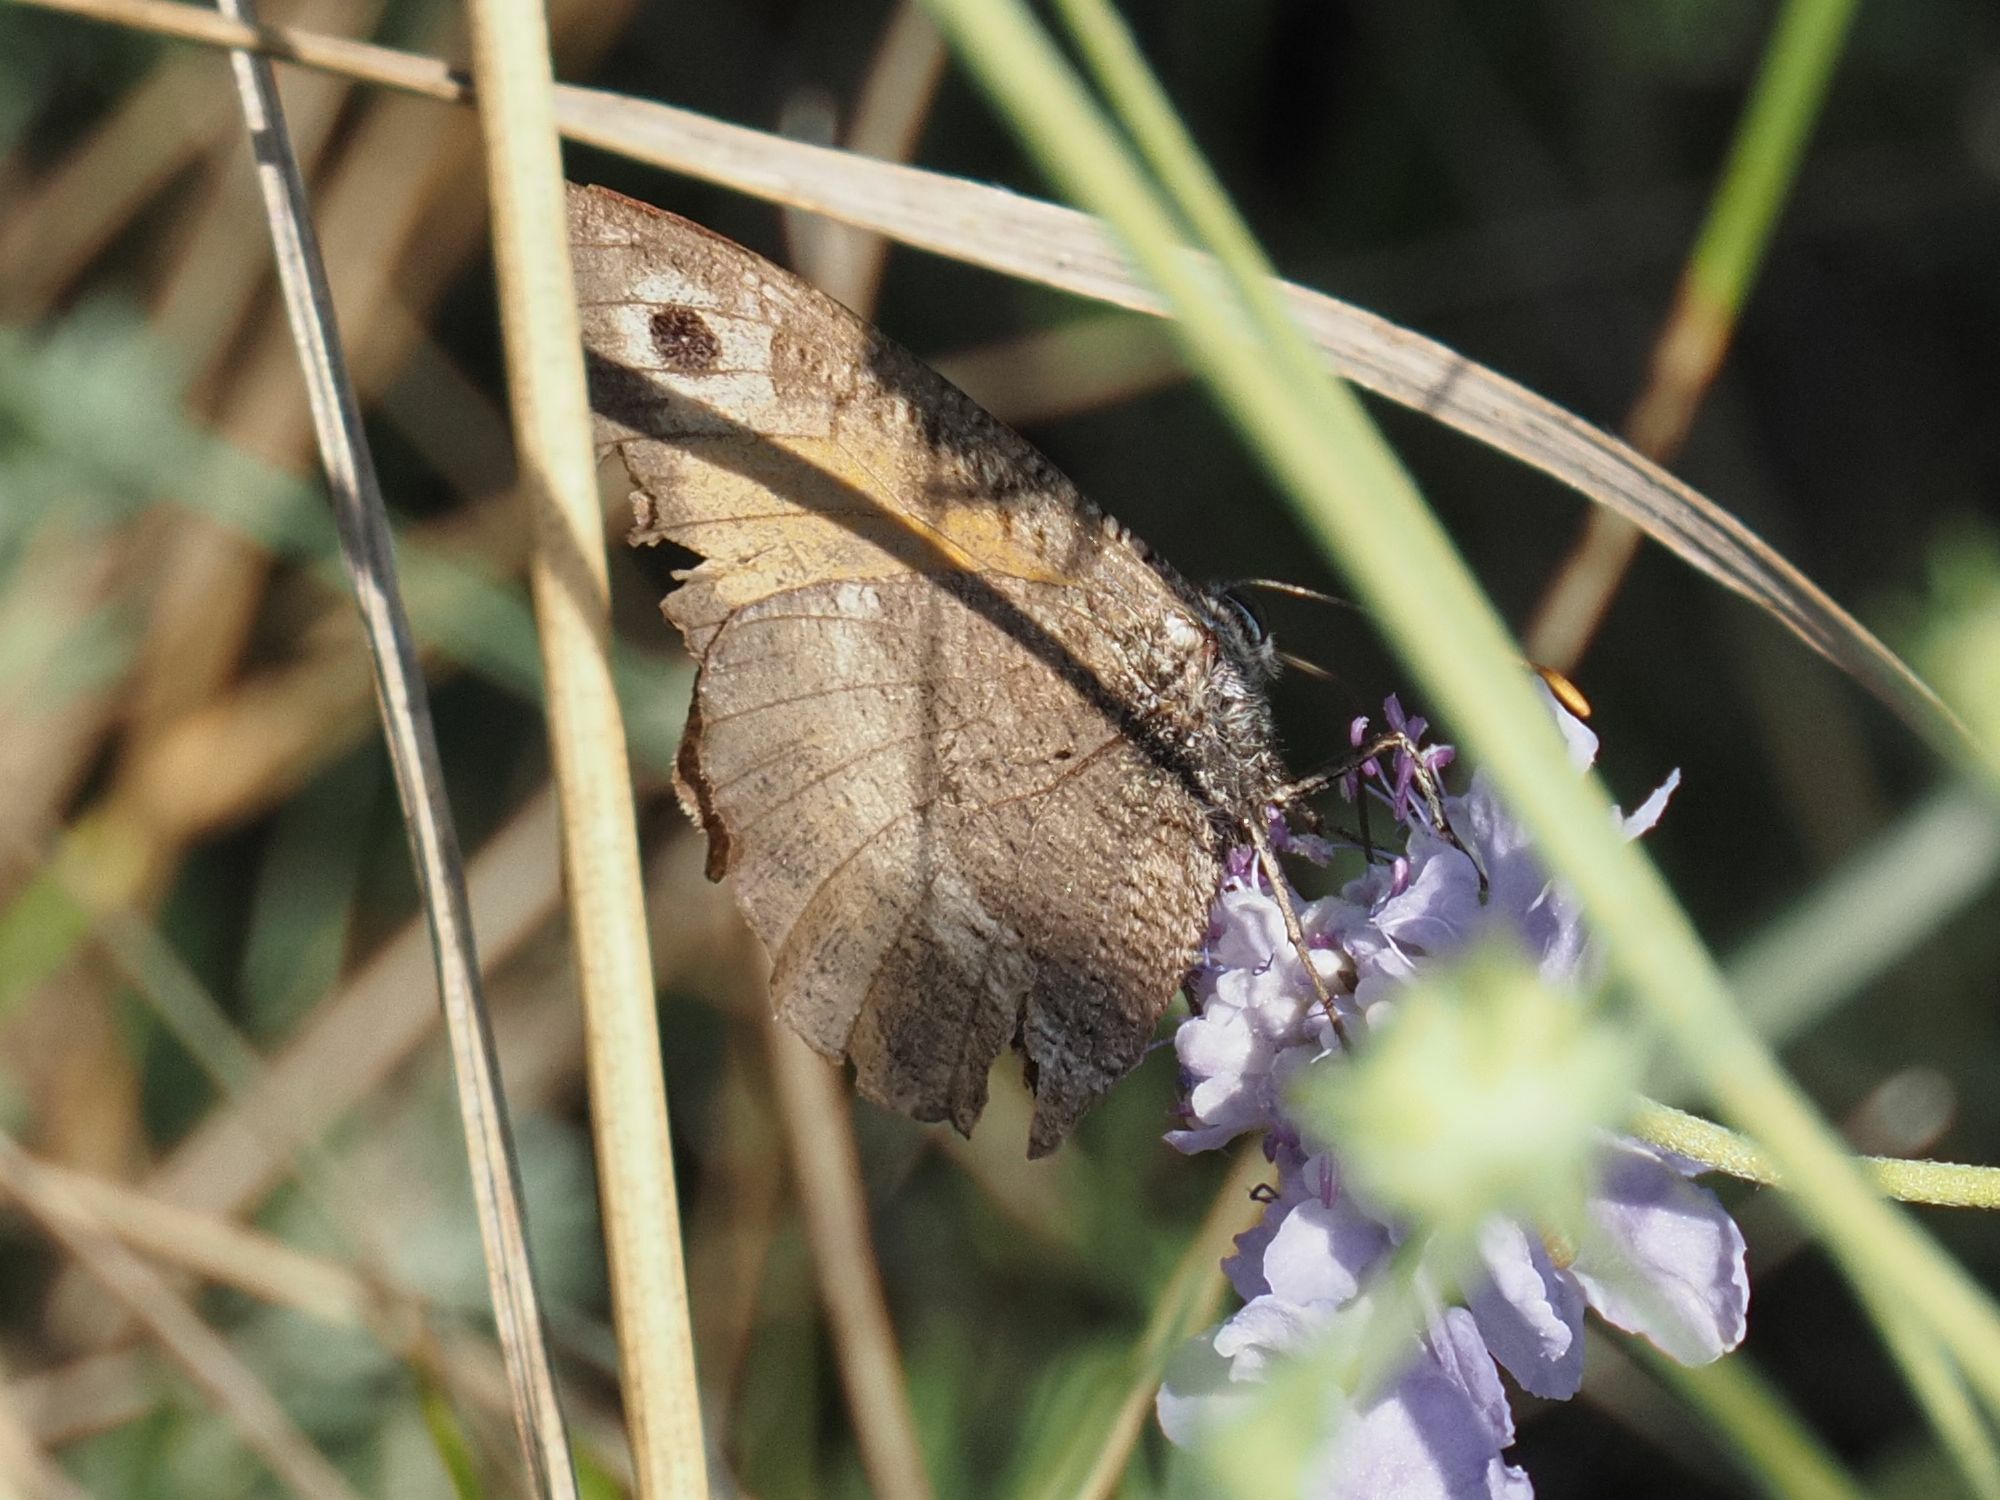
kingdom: Animalia
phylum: Arthropoda
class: Insecta
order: Lepidoptera
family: Nymphalidae
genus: Arethusana
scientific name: Arethusana arethusa
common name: False grayling
